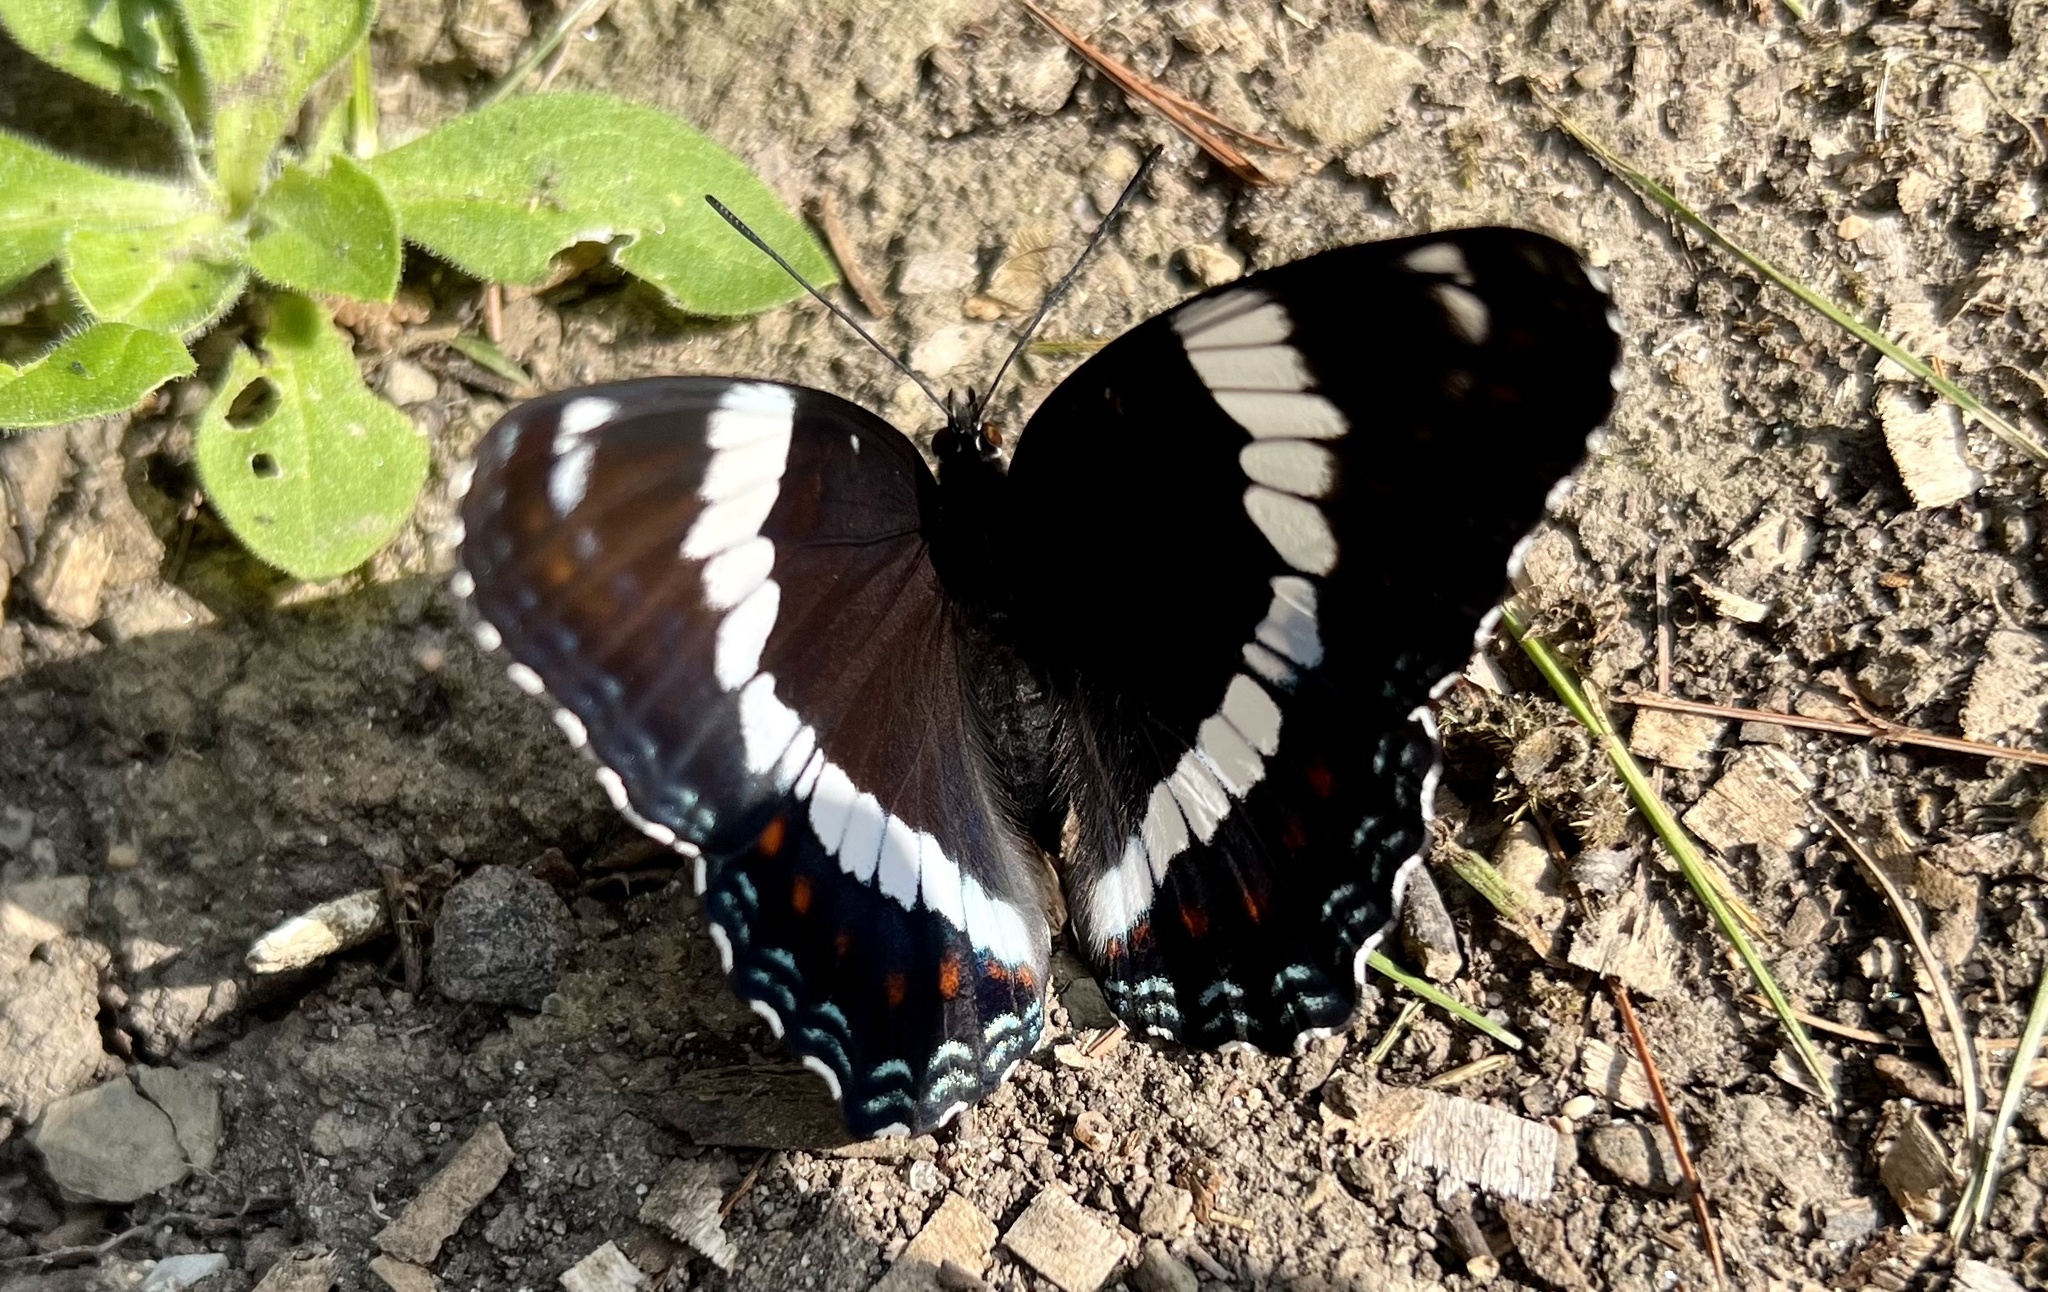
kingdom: Animalia
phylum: Arthropoda
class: Insecta
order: Lepidoptera
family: Nymphalidae
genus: Limenitis
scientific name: Limenitis arthemis
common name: Red-spotted admiral
